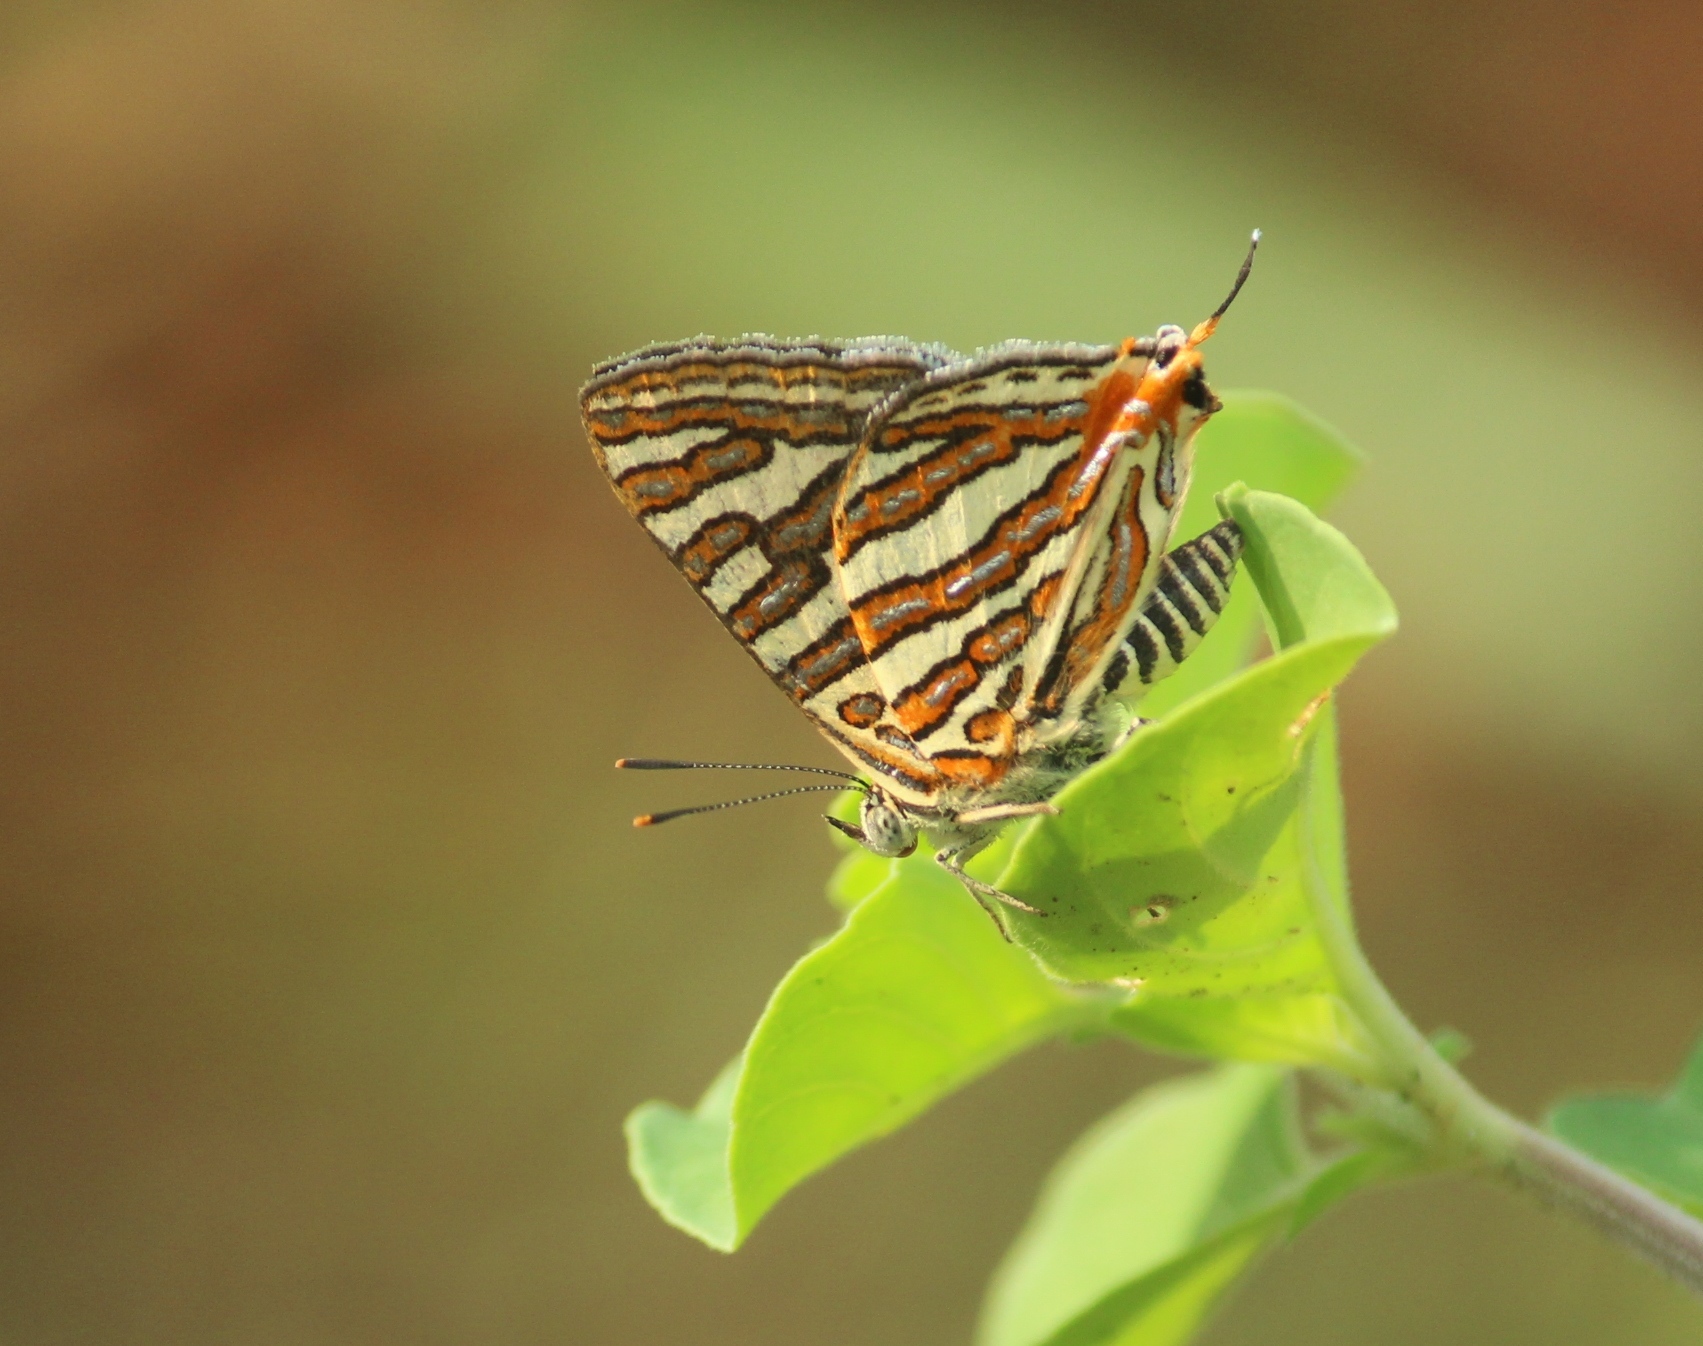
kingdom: Animalia
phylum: Arthropoda
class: Insecta
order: Lepidoptera
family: Lycaenidae
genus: Cigaritis
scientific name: Cigaritis
